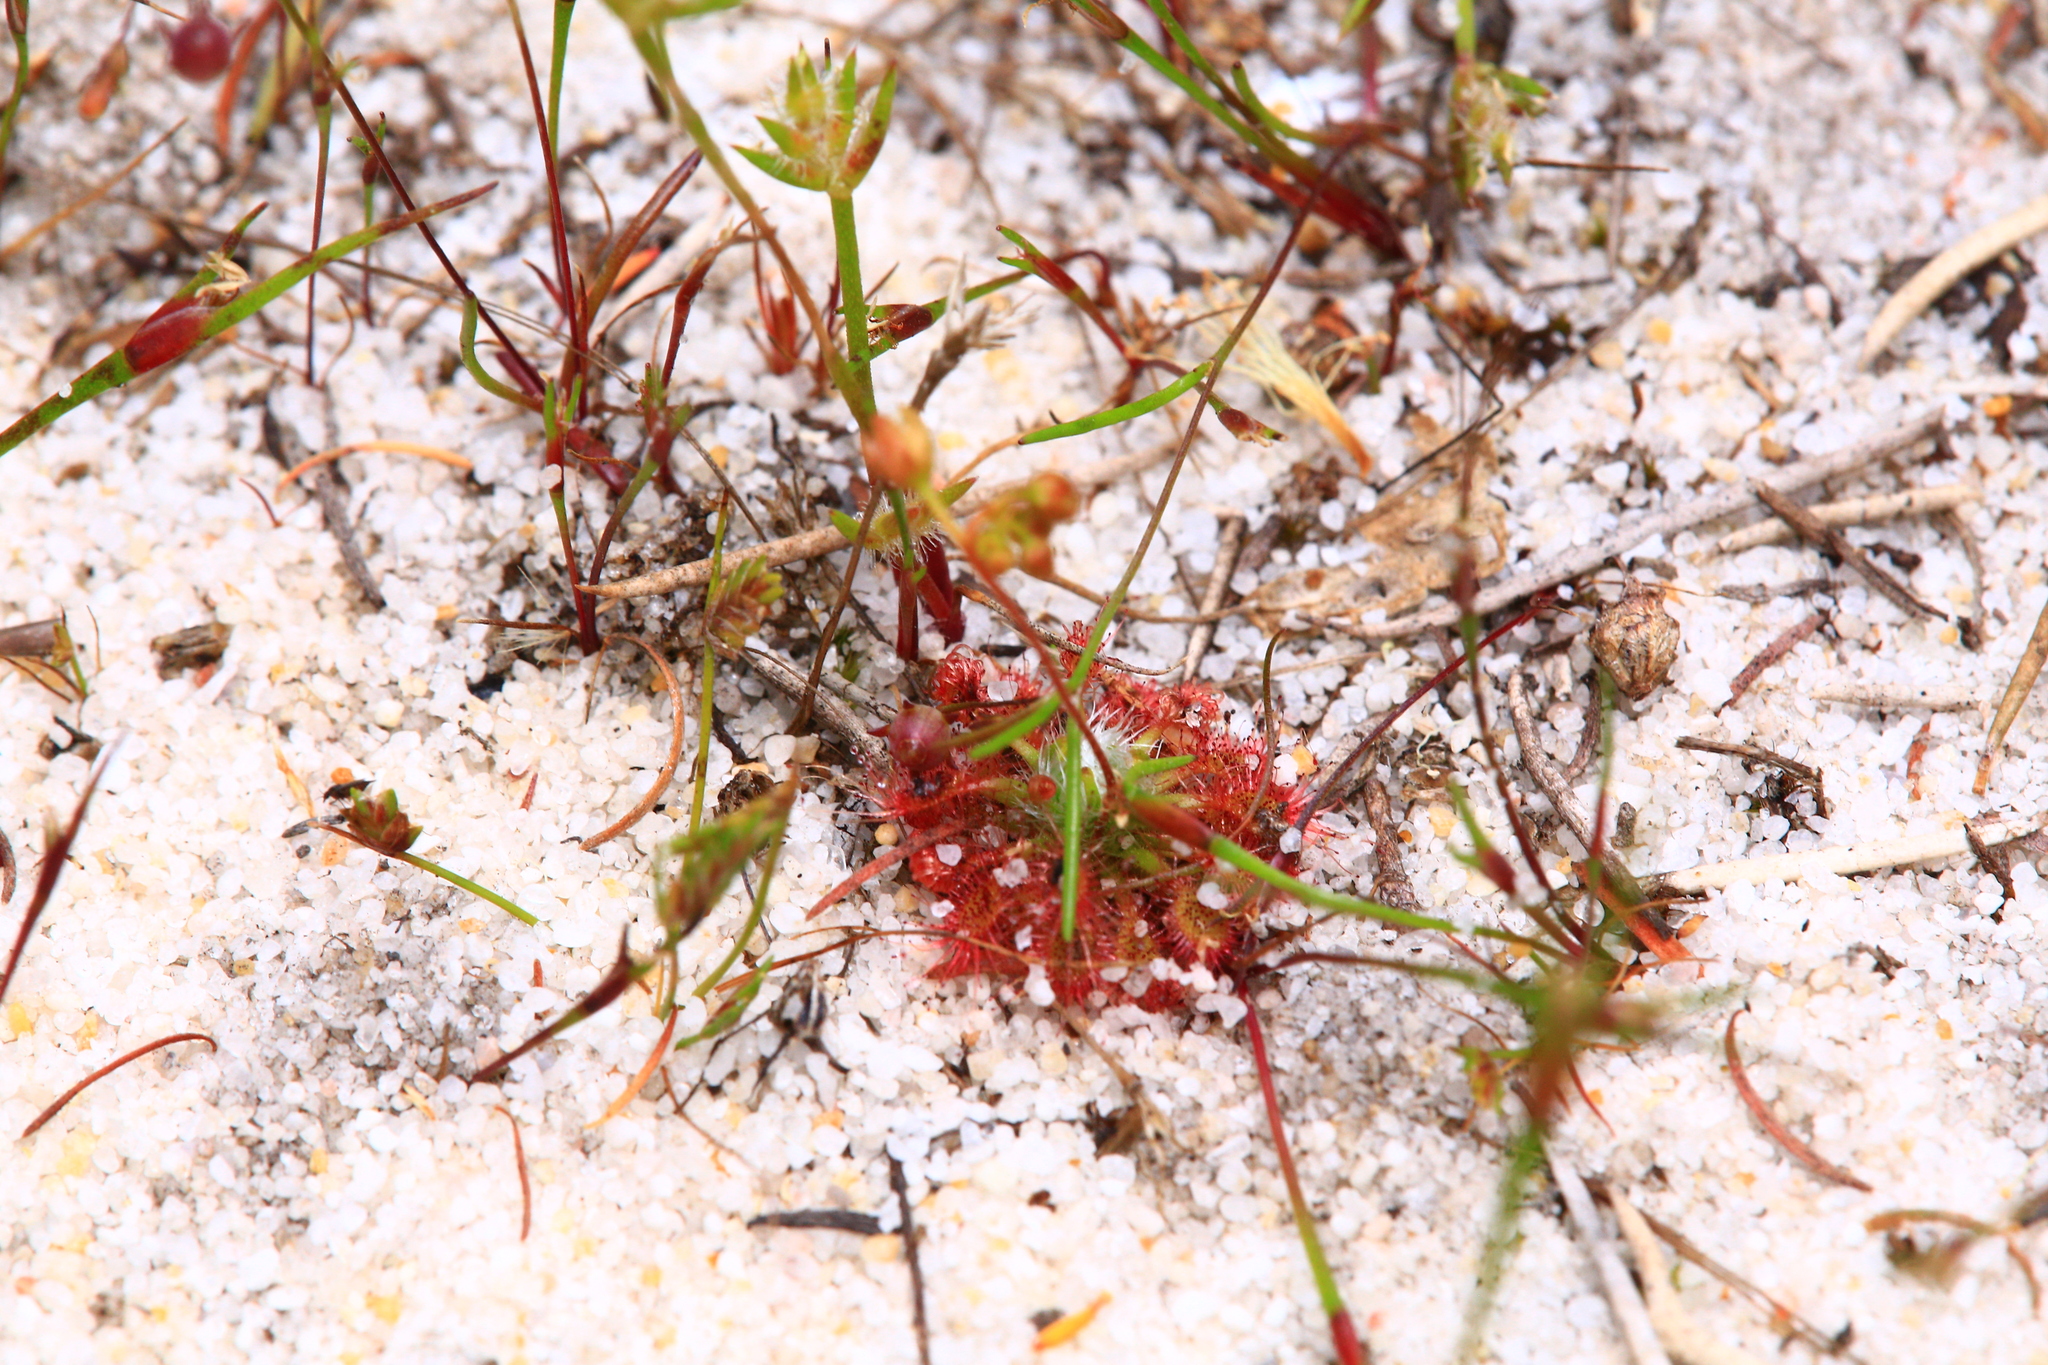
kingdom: Plantae
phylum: Tracheophyta
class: Magnoliopsida
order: Caryophyllales
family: Droseraceae
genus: Drosera
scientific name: Drosera nitidula
